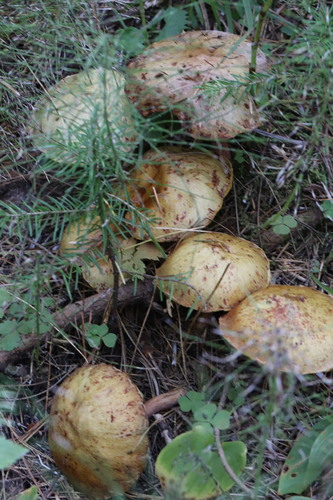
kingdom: Fungi
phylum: Basidiomycota
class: Agaricomycetes
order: Boletales
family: Suillaceae
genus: Suillus
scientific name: Suillus americanus
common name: Chicken fat mushroom
